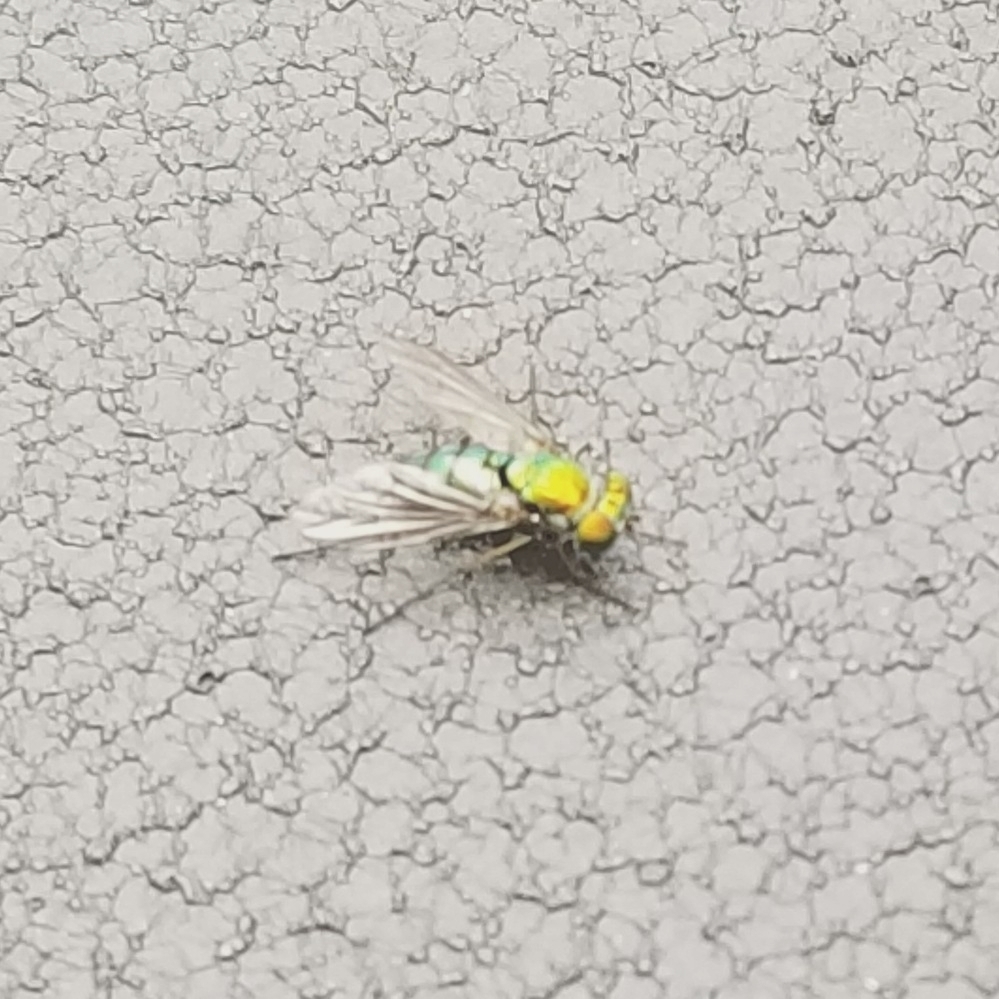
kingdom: Animalia
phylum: Arthropoda
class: Insecta
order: Diptera
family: Dolichopodidae
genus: Condylostylus
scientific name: Condylostylus longicornis
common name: Long-legged fly
